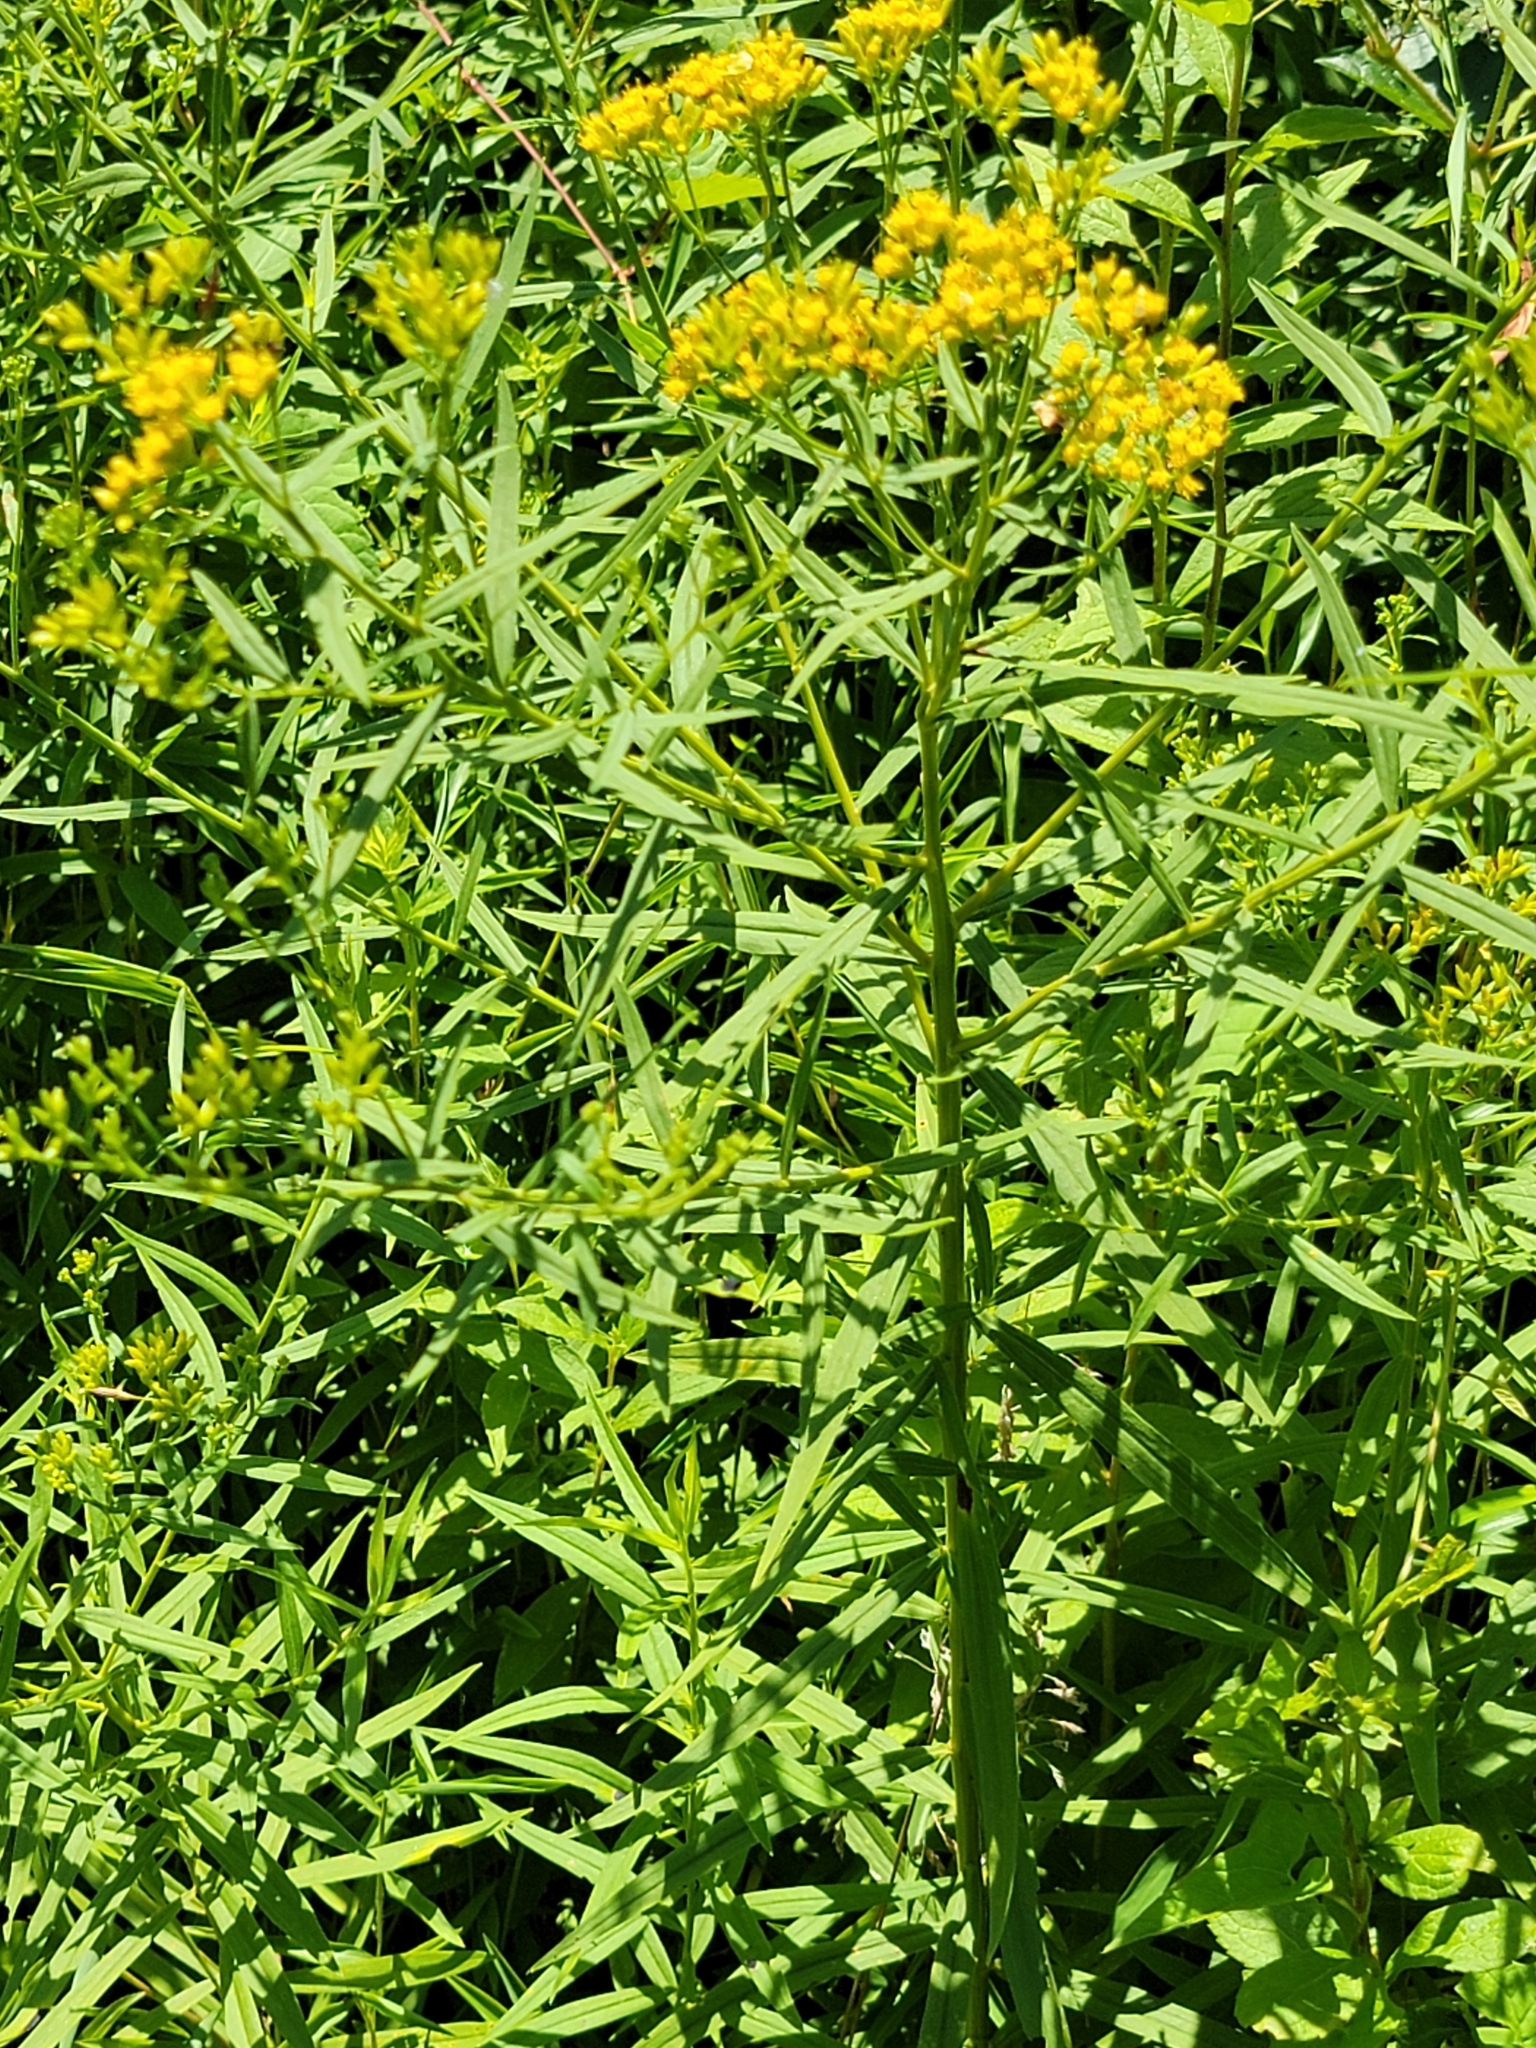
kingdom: Plantae
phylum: Tracheophyta
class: Magnoliopsida
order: Asterales
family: Asteraceae
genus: Euthamia
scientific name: Euthamia graminifolia
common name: Common goldentop
